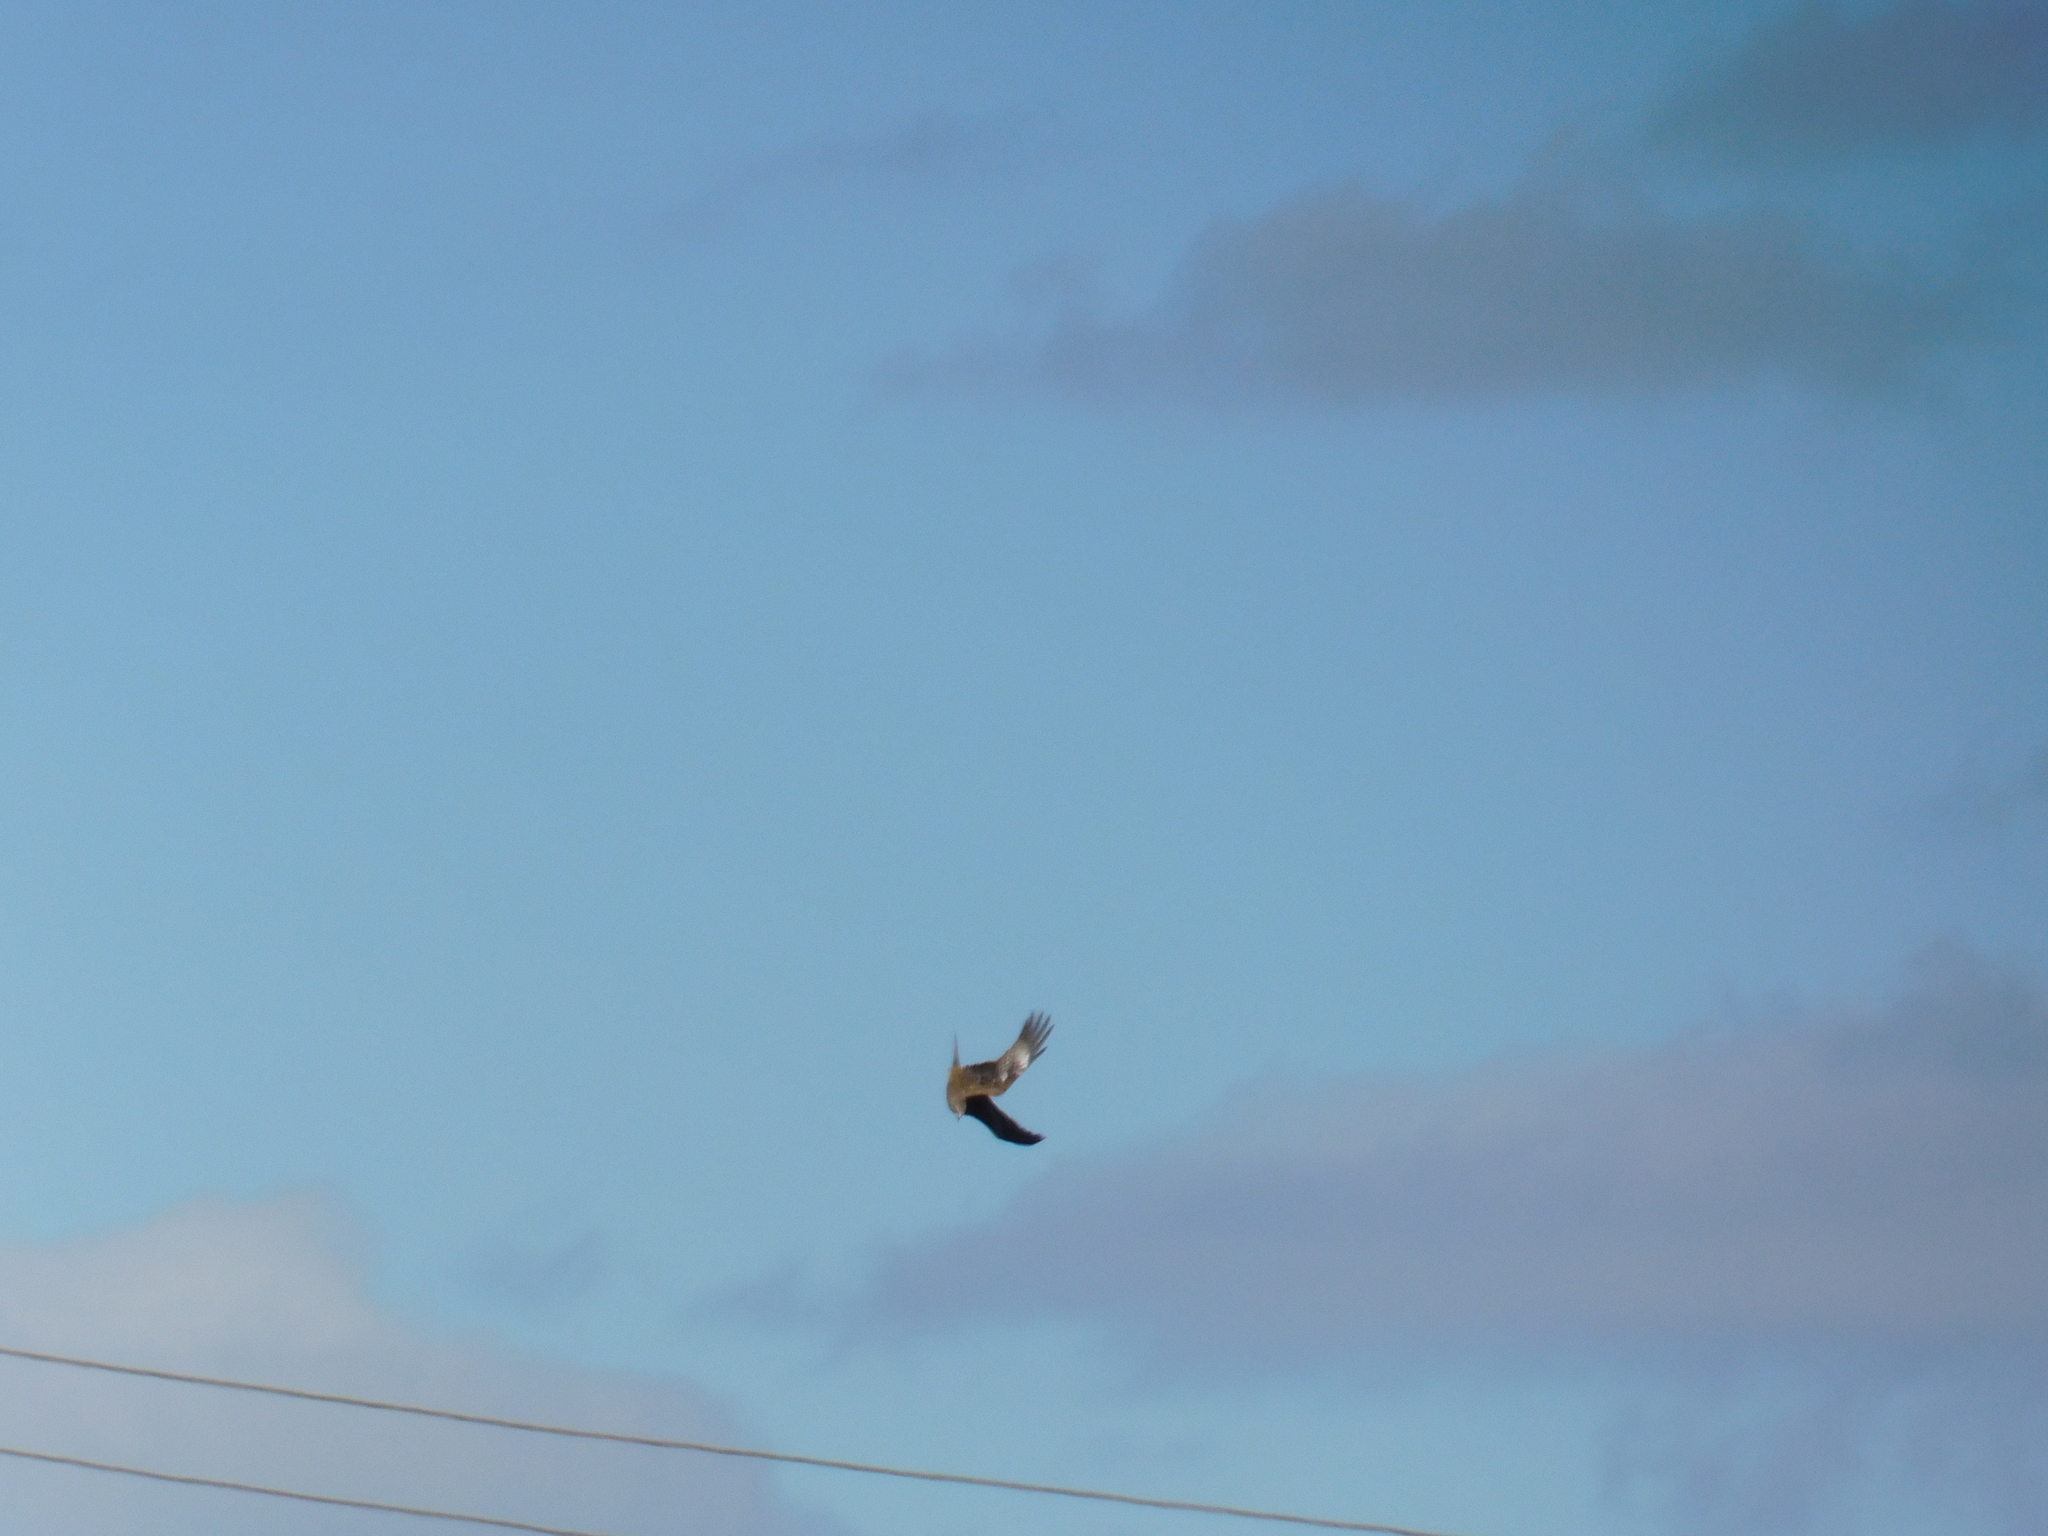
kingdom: Animalia
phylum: Chordata
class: Aves
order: Accipitriformes
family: Accipitridae
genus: Milvus
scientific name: Milvus migrans
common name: Black kite
